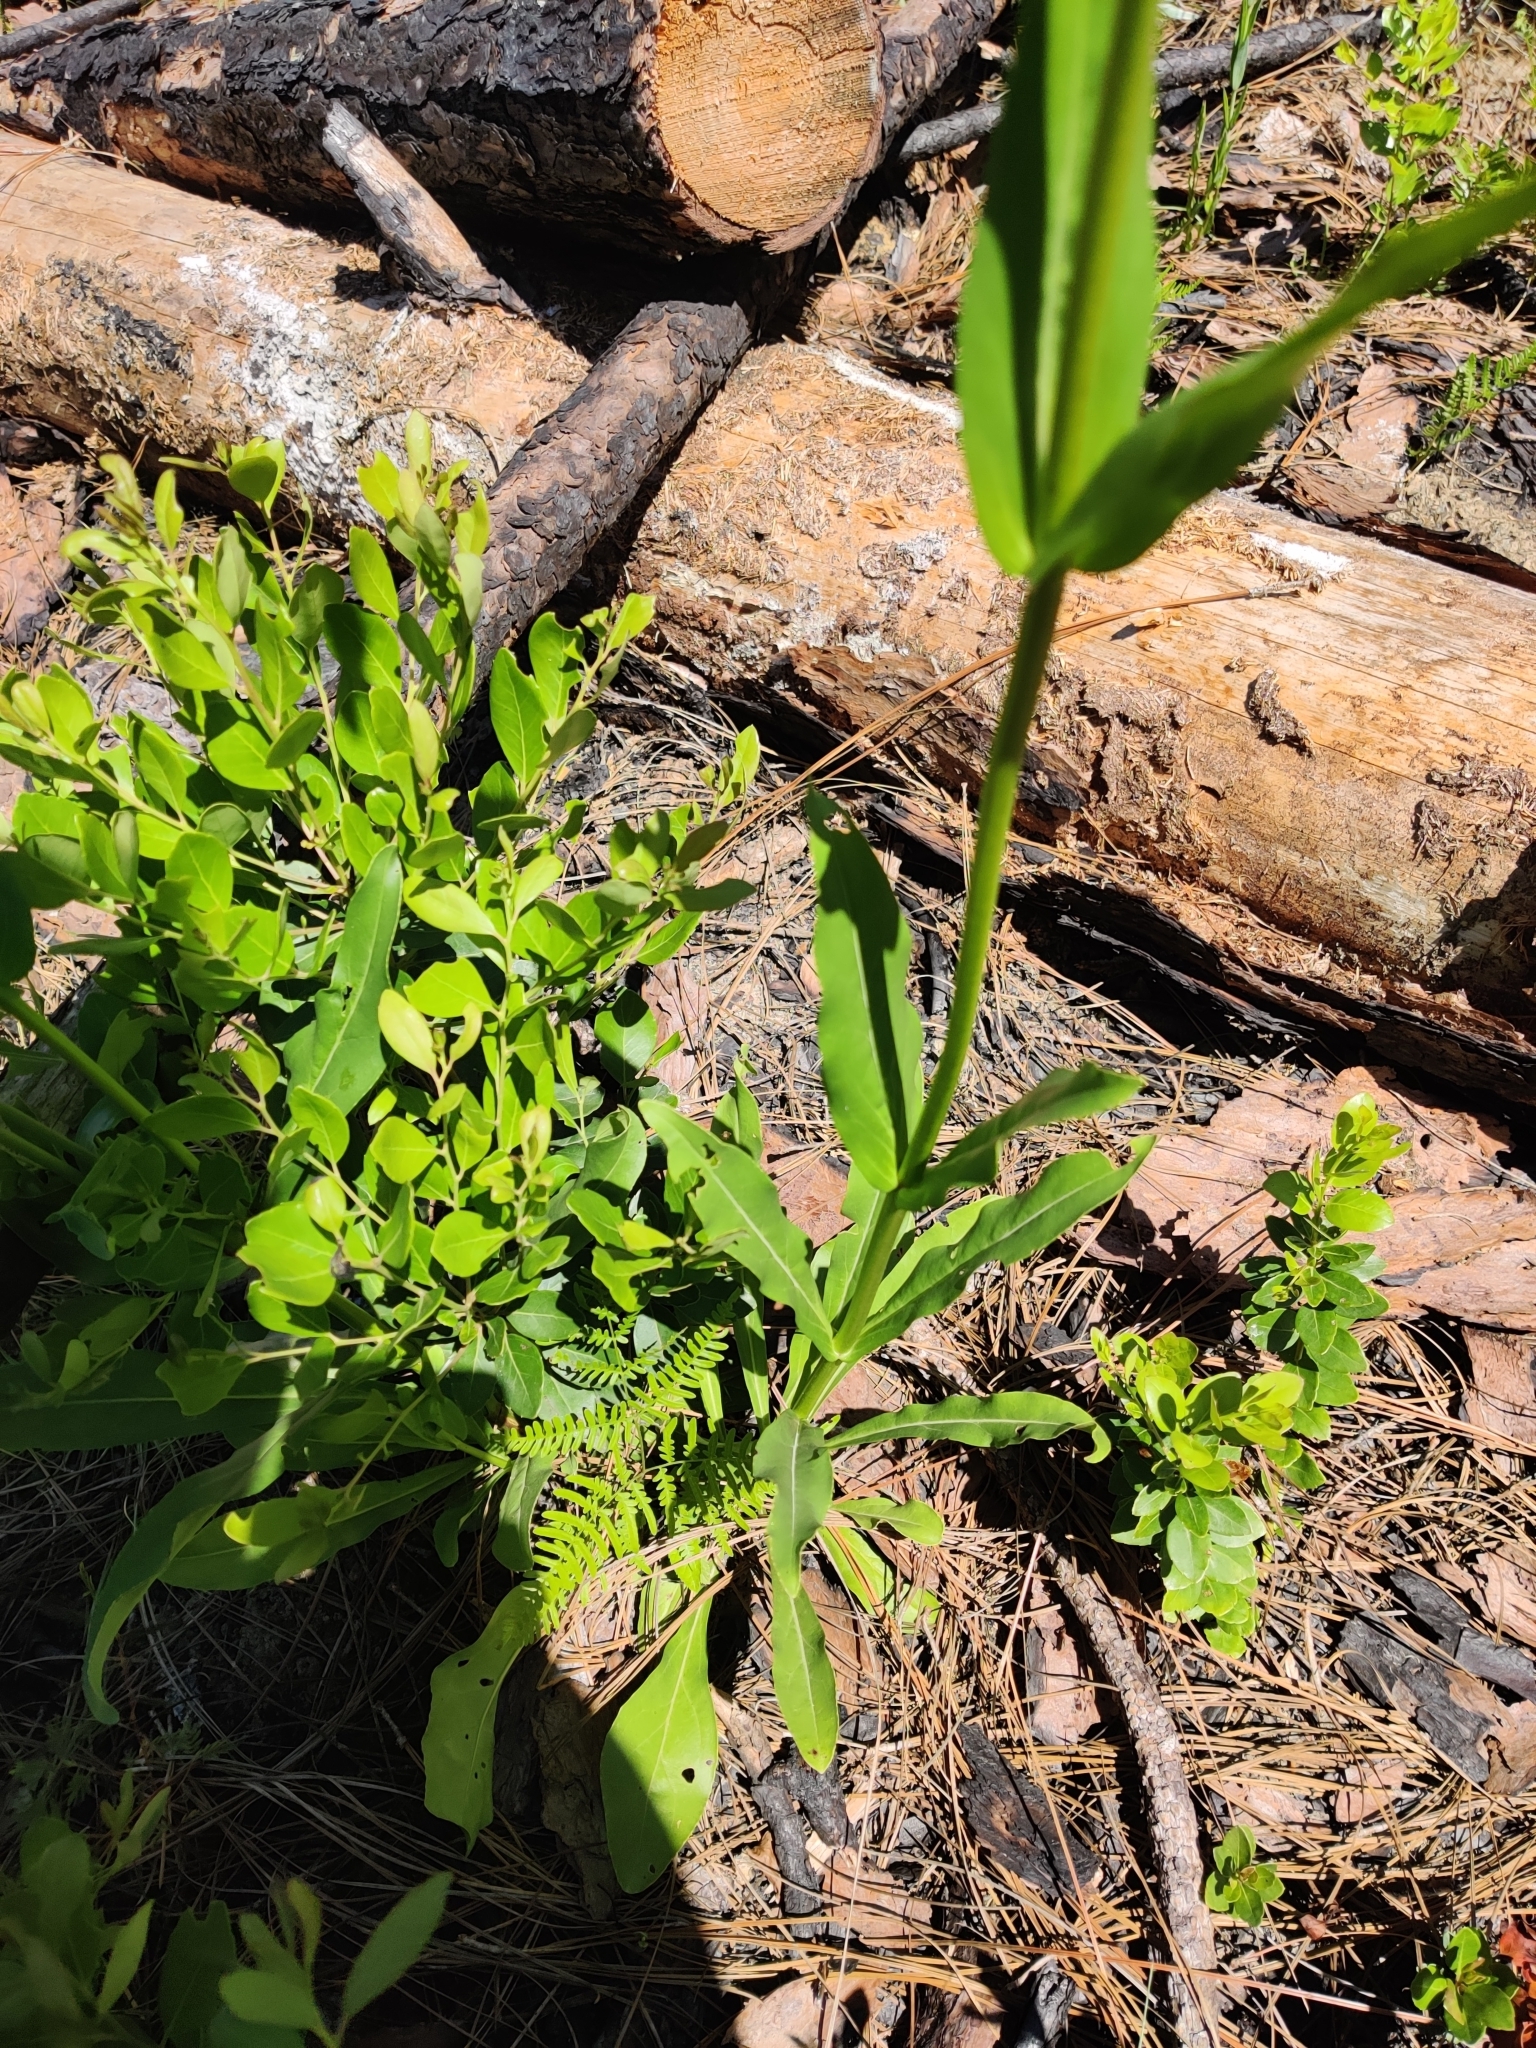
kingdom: Plantae
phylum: Tracheophyta
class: Magnoliopsida
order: Lamiales
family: Plantaginaceae
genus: Penstemon
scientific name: Penstemon multiflorus
